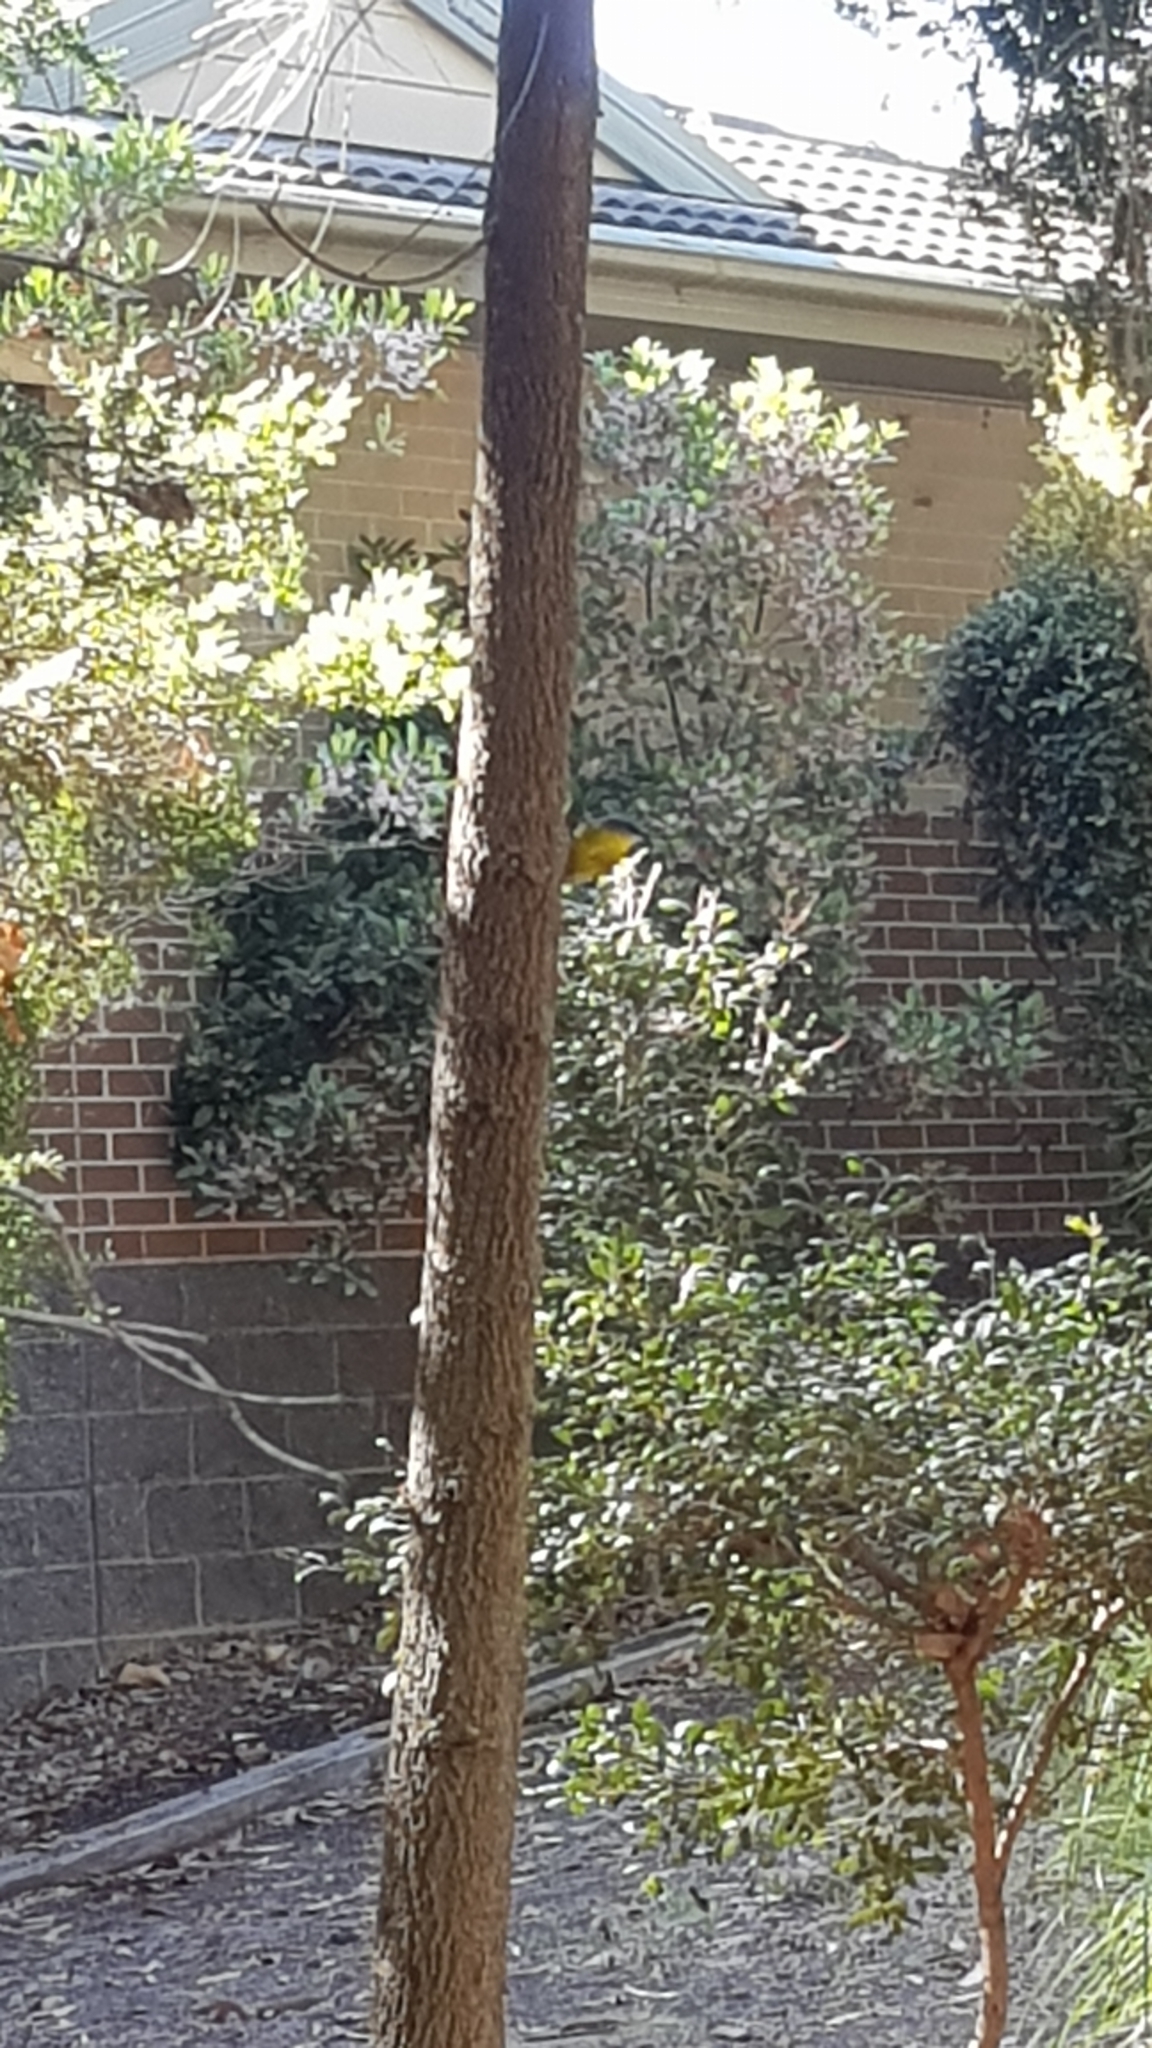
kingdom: Animalia
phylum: Chordata
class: Aves
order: Passeriformes
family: Petroicidae
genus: Eopsaltria
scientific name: Eopsaltria australis
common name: Eastern yellow robin
